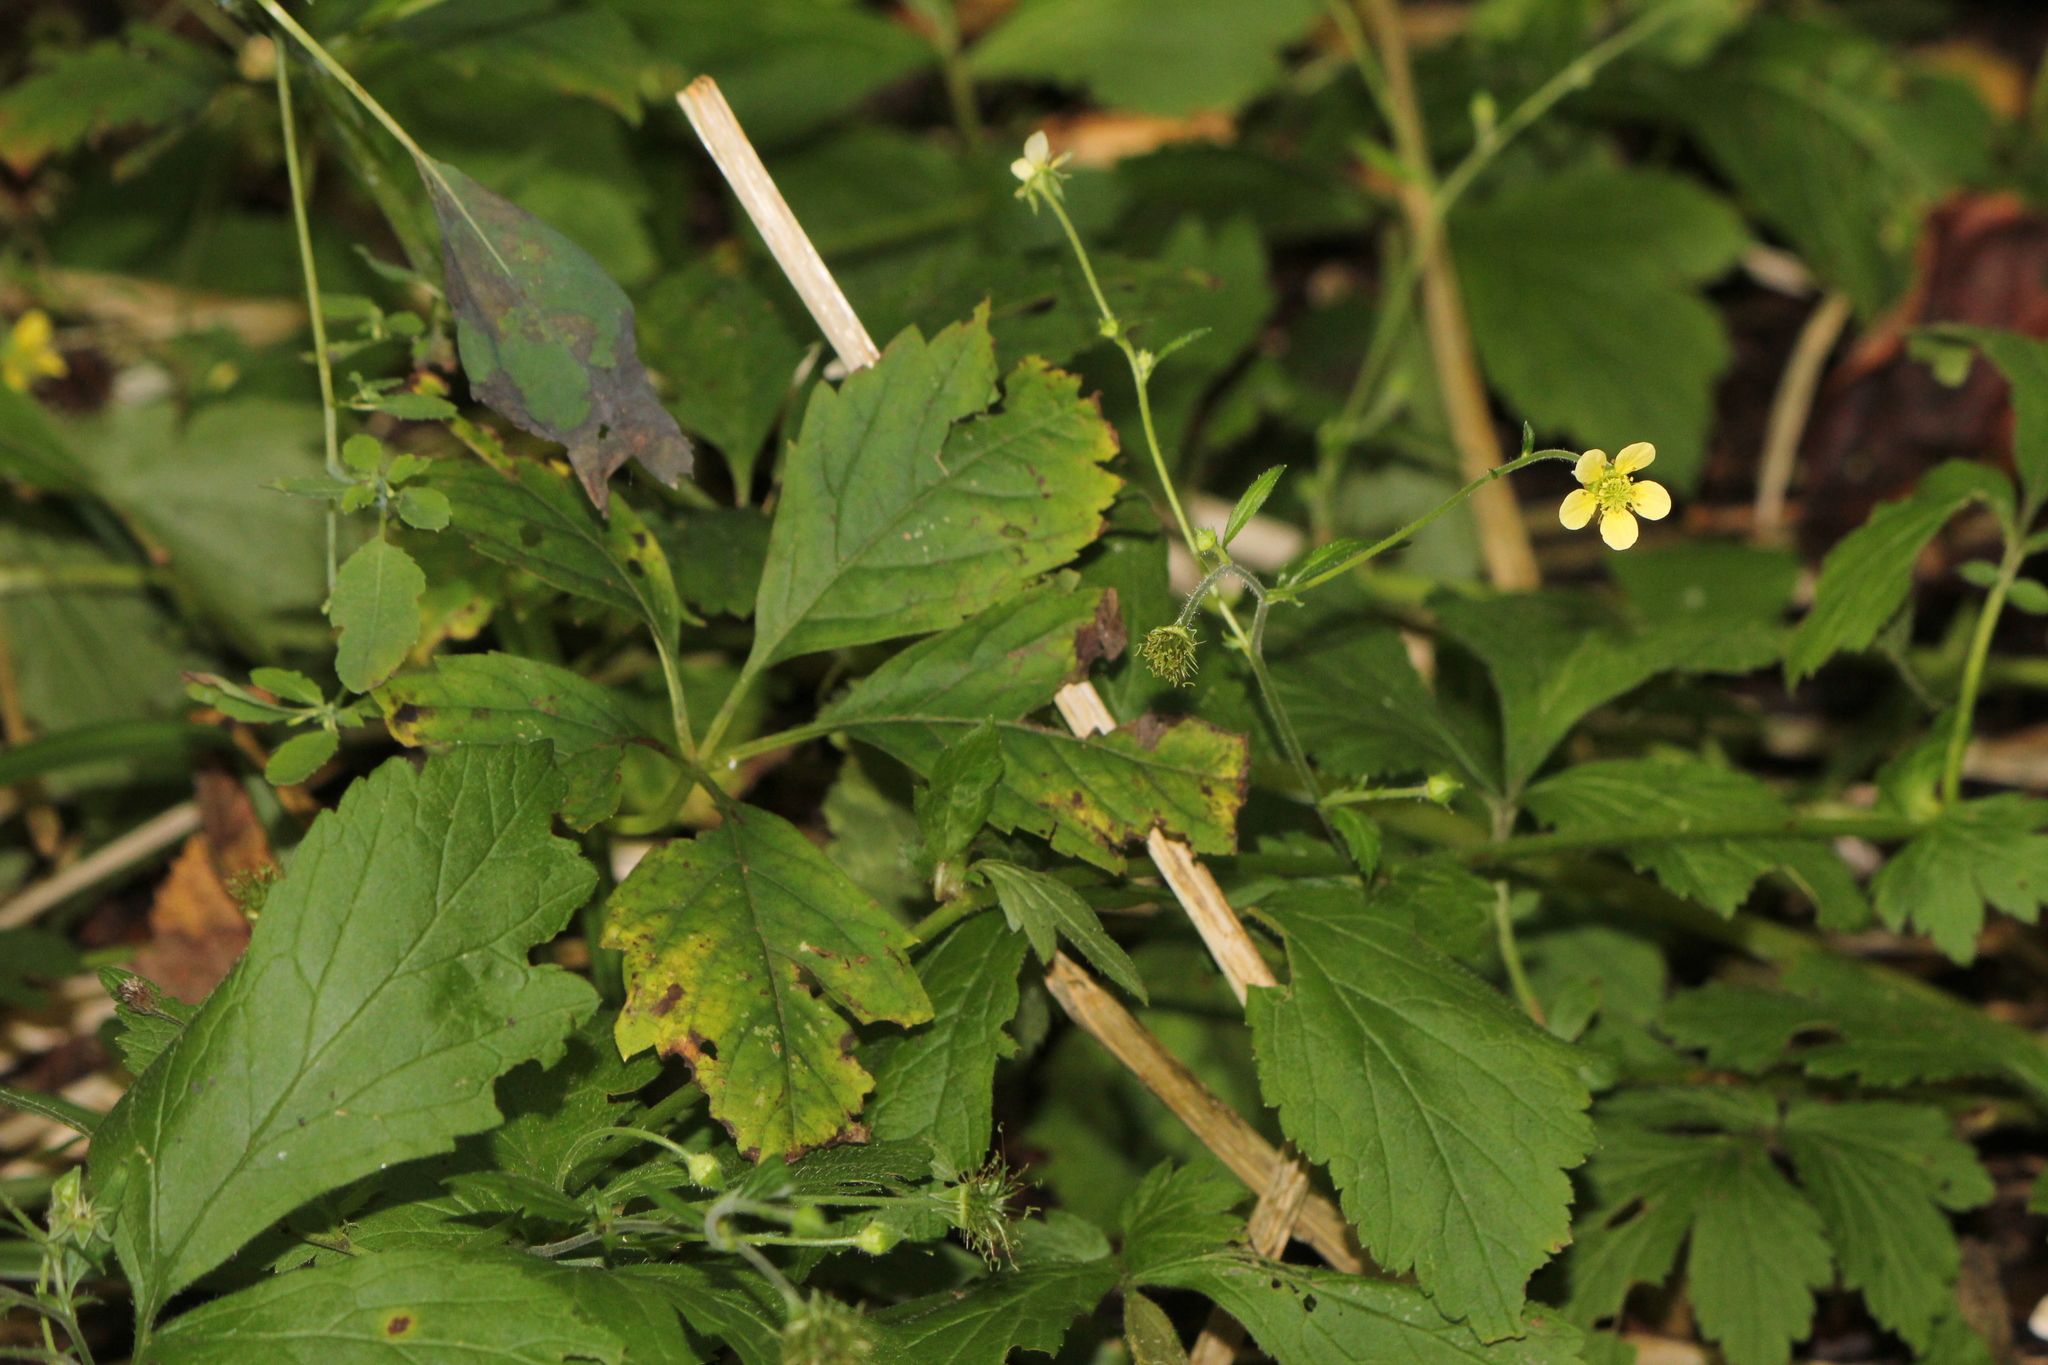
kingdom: Plantae
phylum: Tracheophyta
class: Magnoliopsida
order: Rosales
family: Rosaceae
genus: Geum
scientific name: Geum catlingii
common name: Catling's avens
